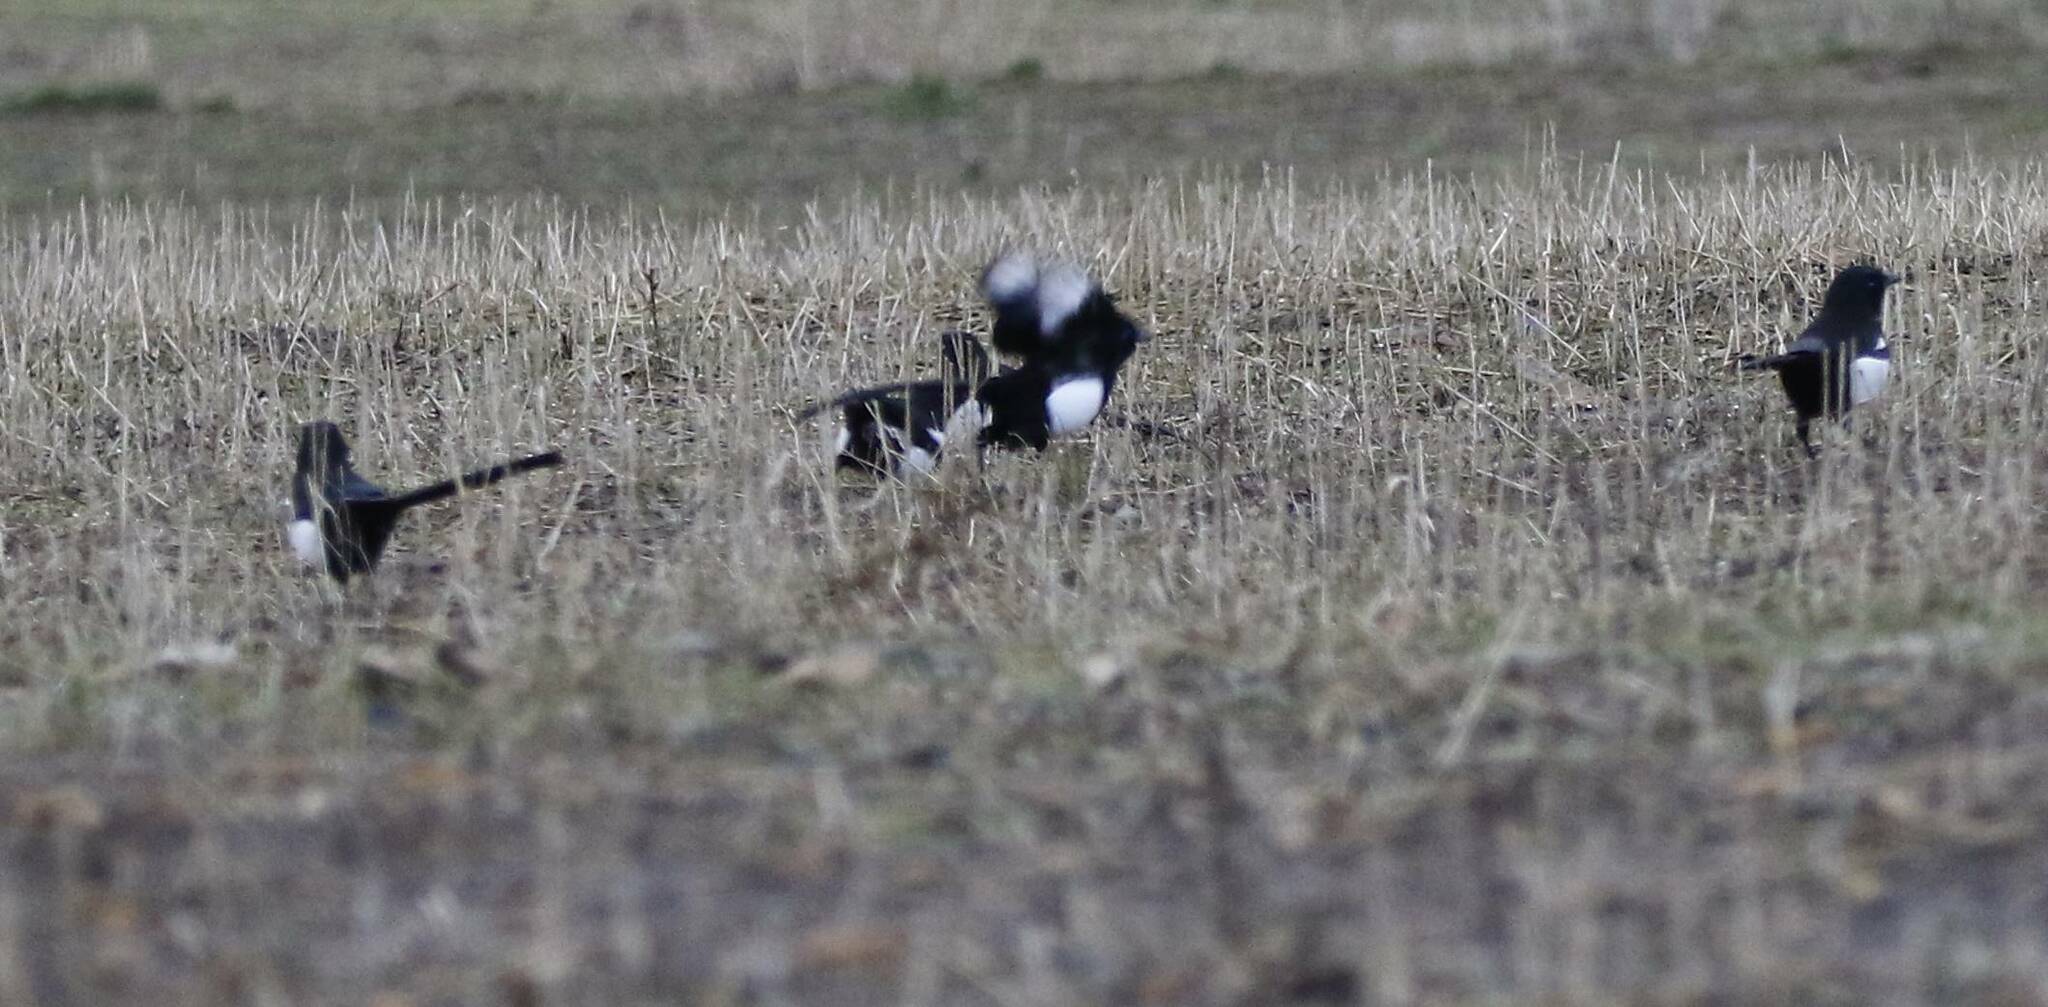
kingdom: Animalia
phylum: Chordata
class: Aves
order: Passeriformes
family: Corvidae
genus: Pica
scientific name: Pica mauritanica
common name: Maghreb magpie
